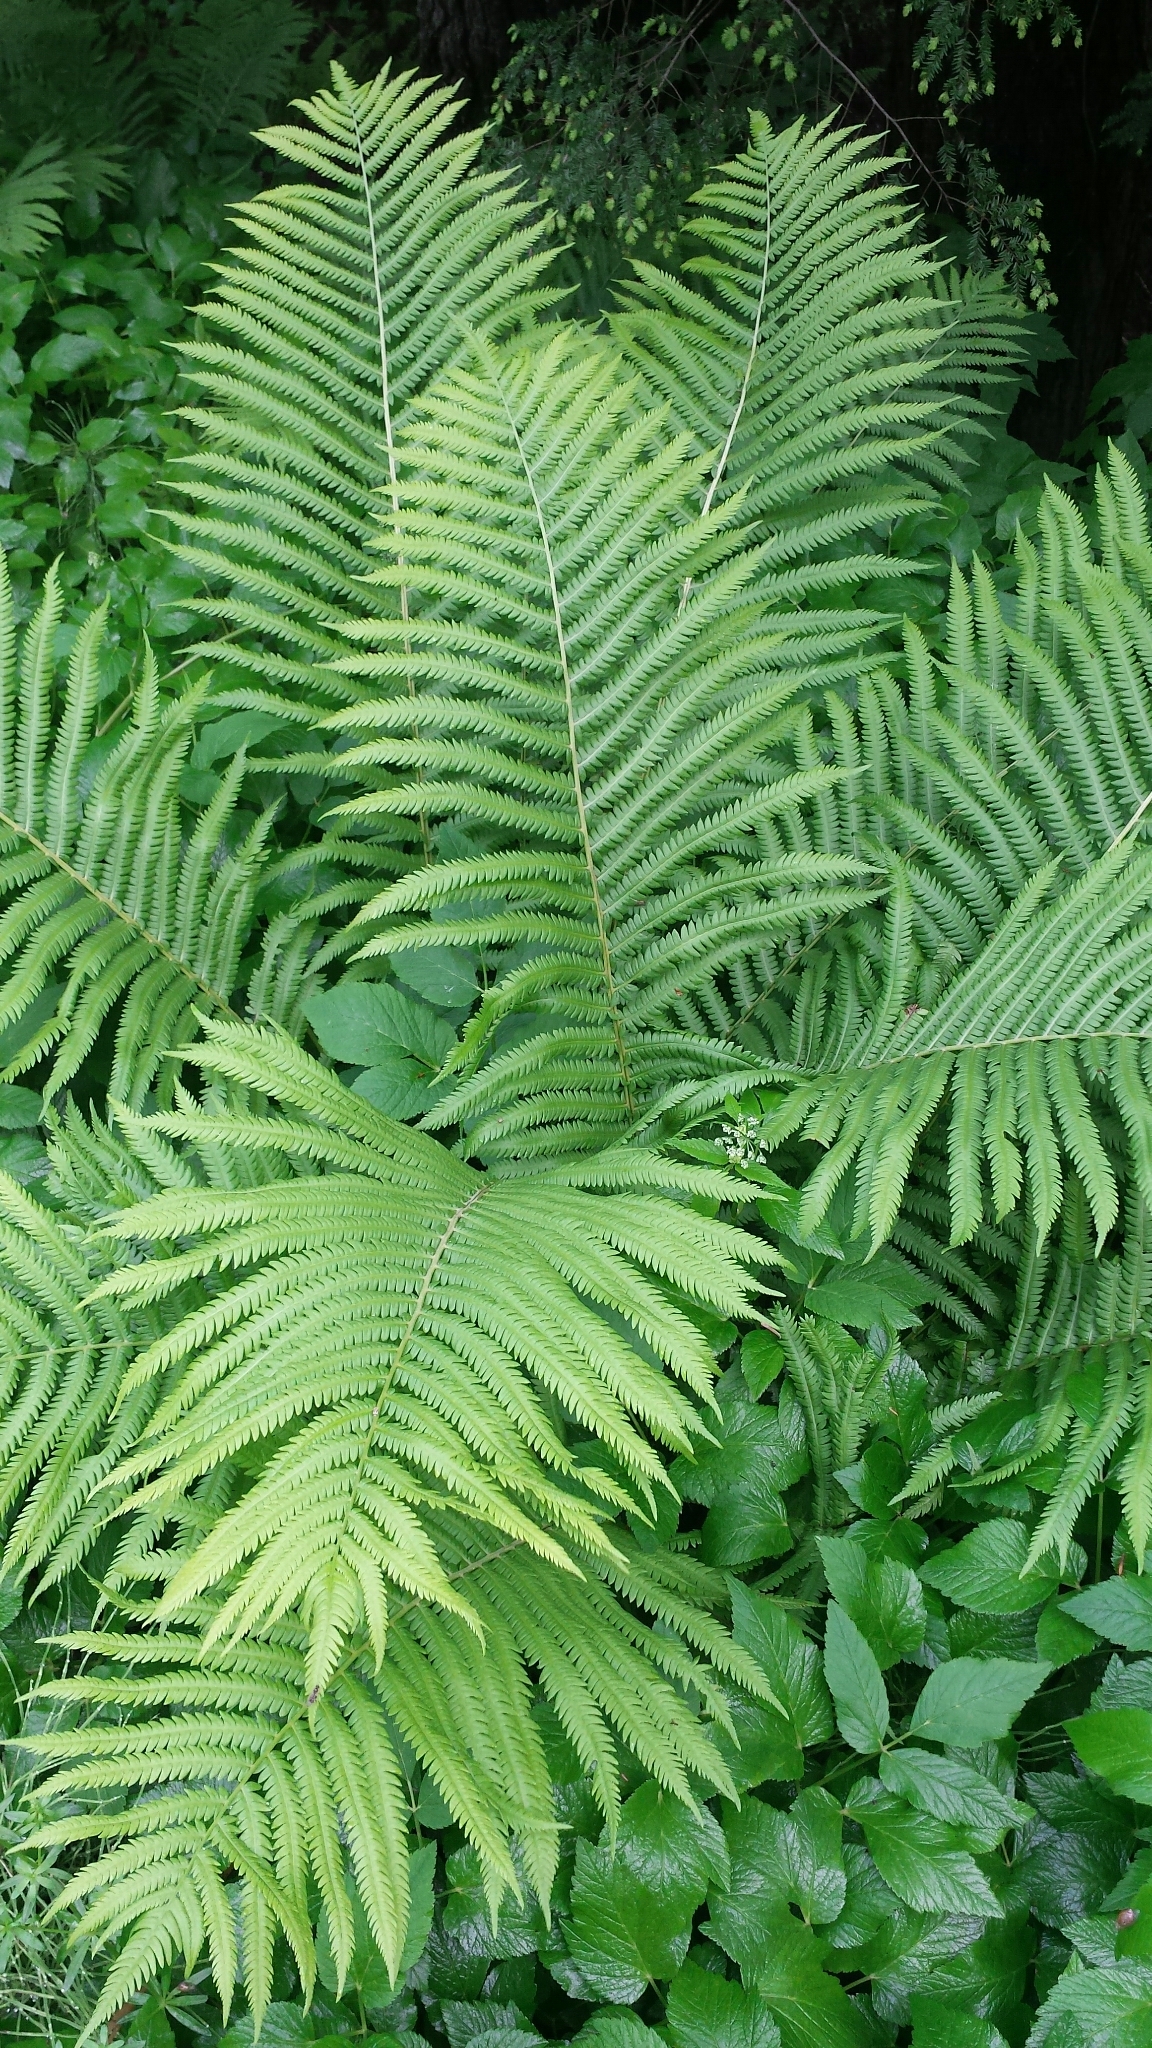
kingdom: Plantae
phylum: Tracheophyta
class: Polypodiopsida
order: Polypodiales
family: Onocleaceae
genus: Matteuccia
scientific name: Matteuccia struthiopteris
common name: Ostrich fern
